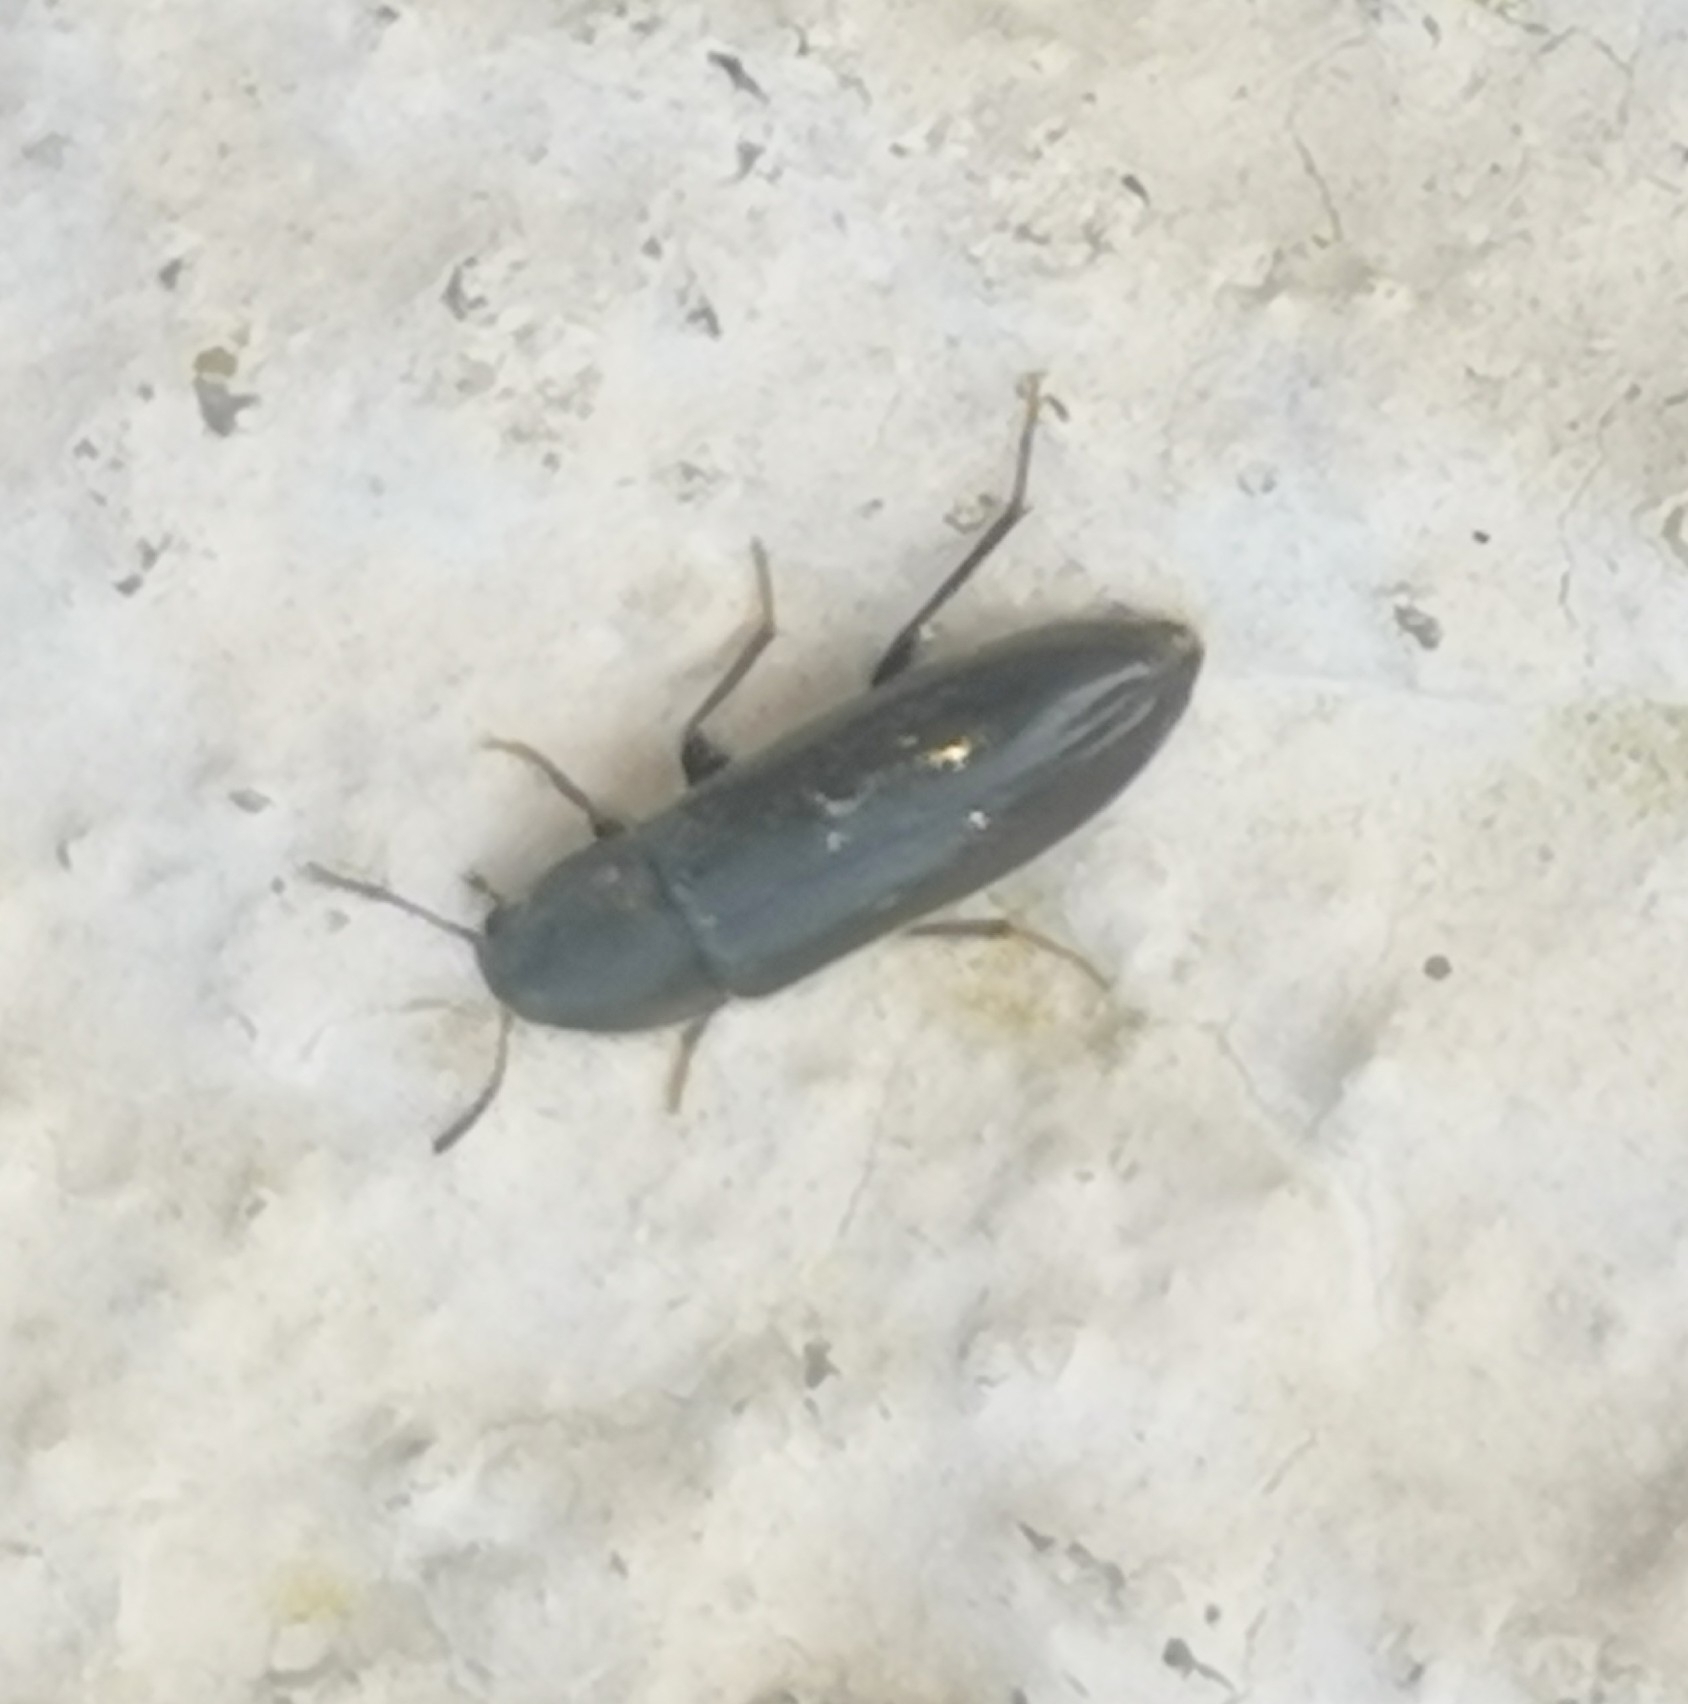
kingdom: Animalia
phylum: Arthropoda
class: Insecta
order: Coleoptera
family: Melandryidae
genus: Xylita
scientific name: Xylita laevigata
